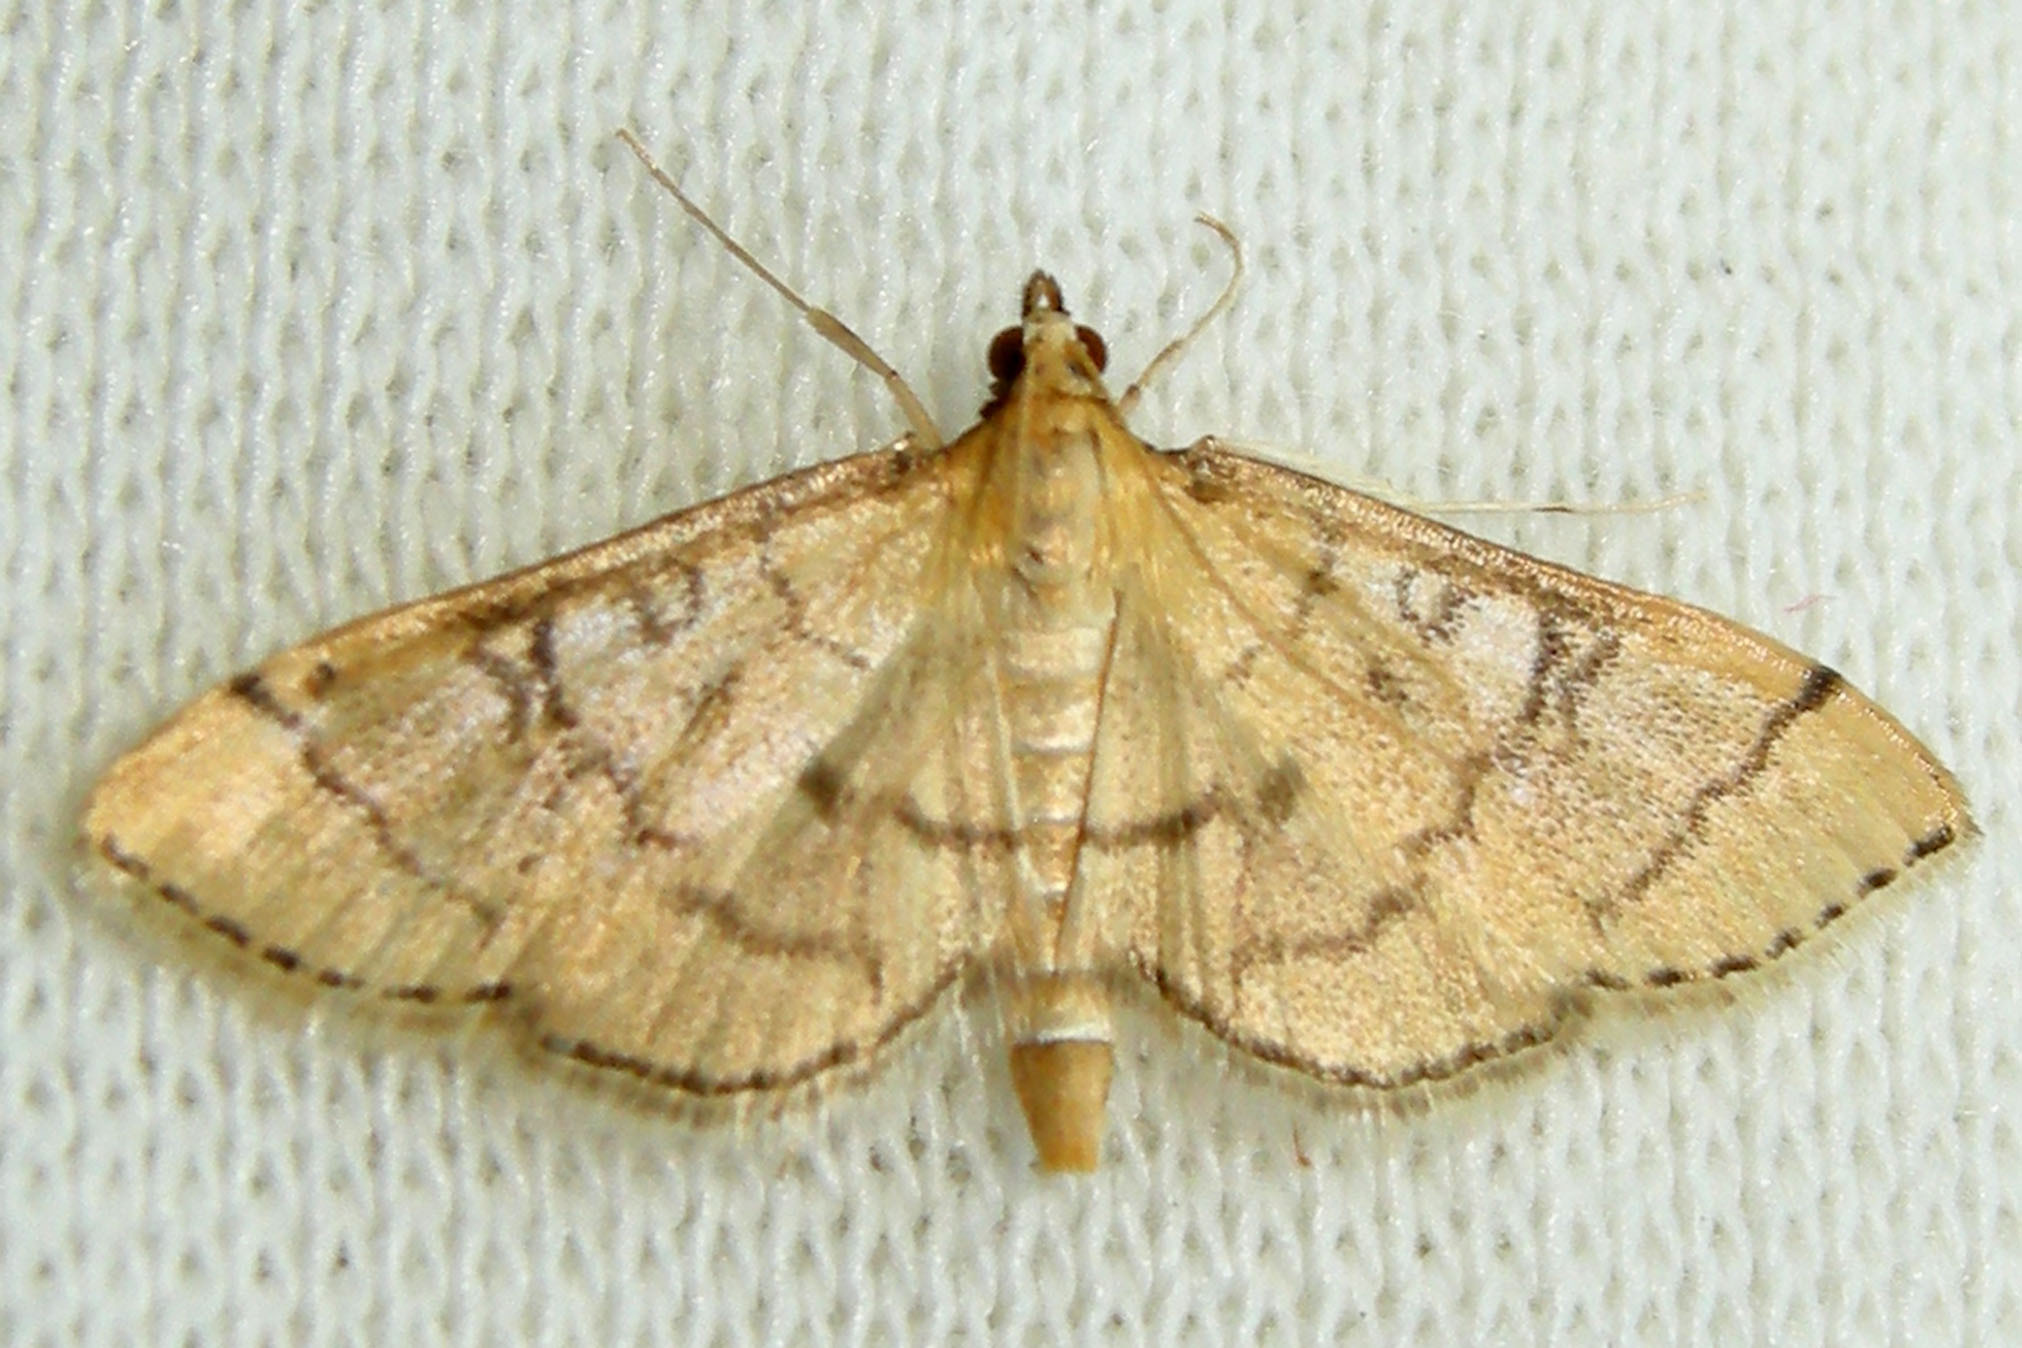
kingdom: Animalia
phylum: Arthropoda
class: Insecta
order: Lepidoptera
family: Crambidae
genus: Lamprosema
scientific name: Lamprosema Blepharomastix ranalis
